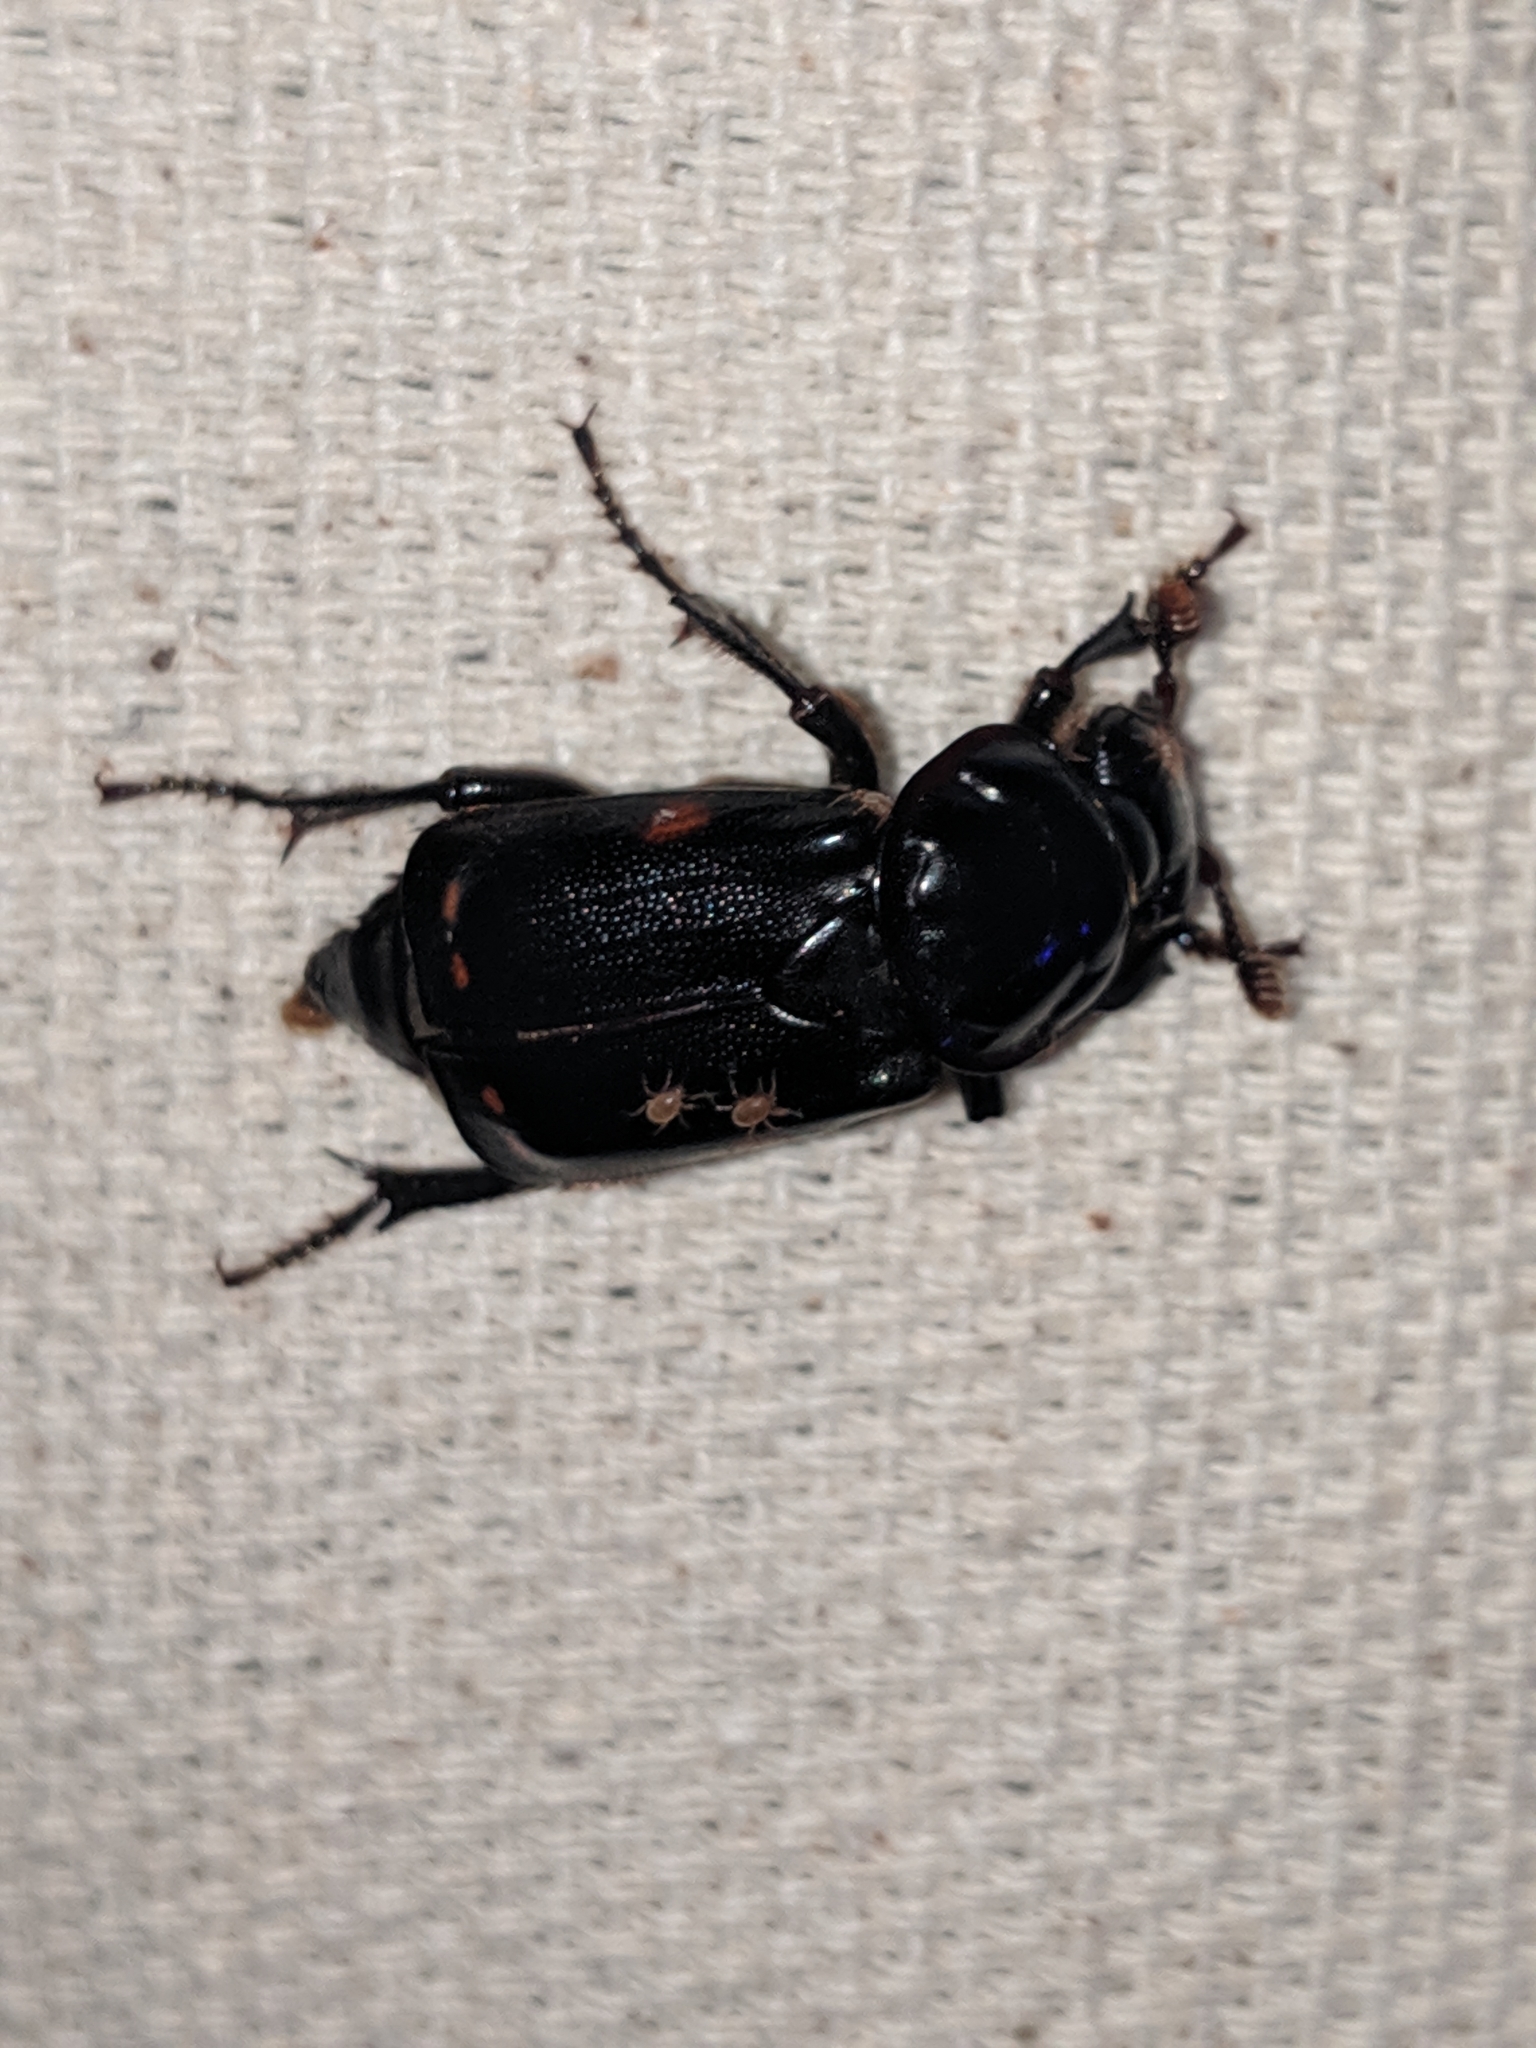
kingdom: Animalia
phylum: Arthropoda
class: Insecta
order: Coleoptera
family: Staphylinidae
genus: Nicrophorus
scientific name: Nicrophorus pustulatus
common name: Pustulated carrion beetle
